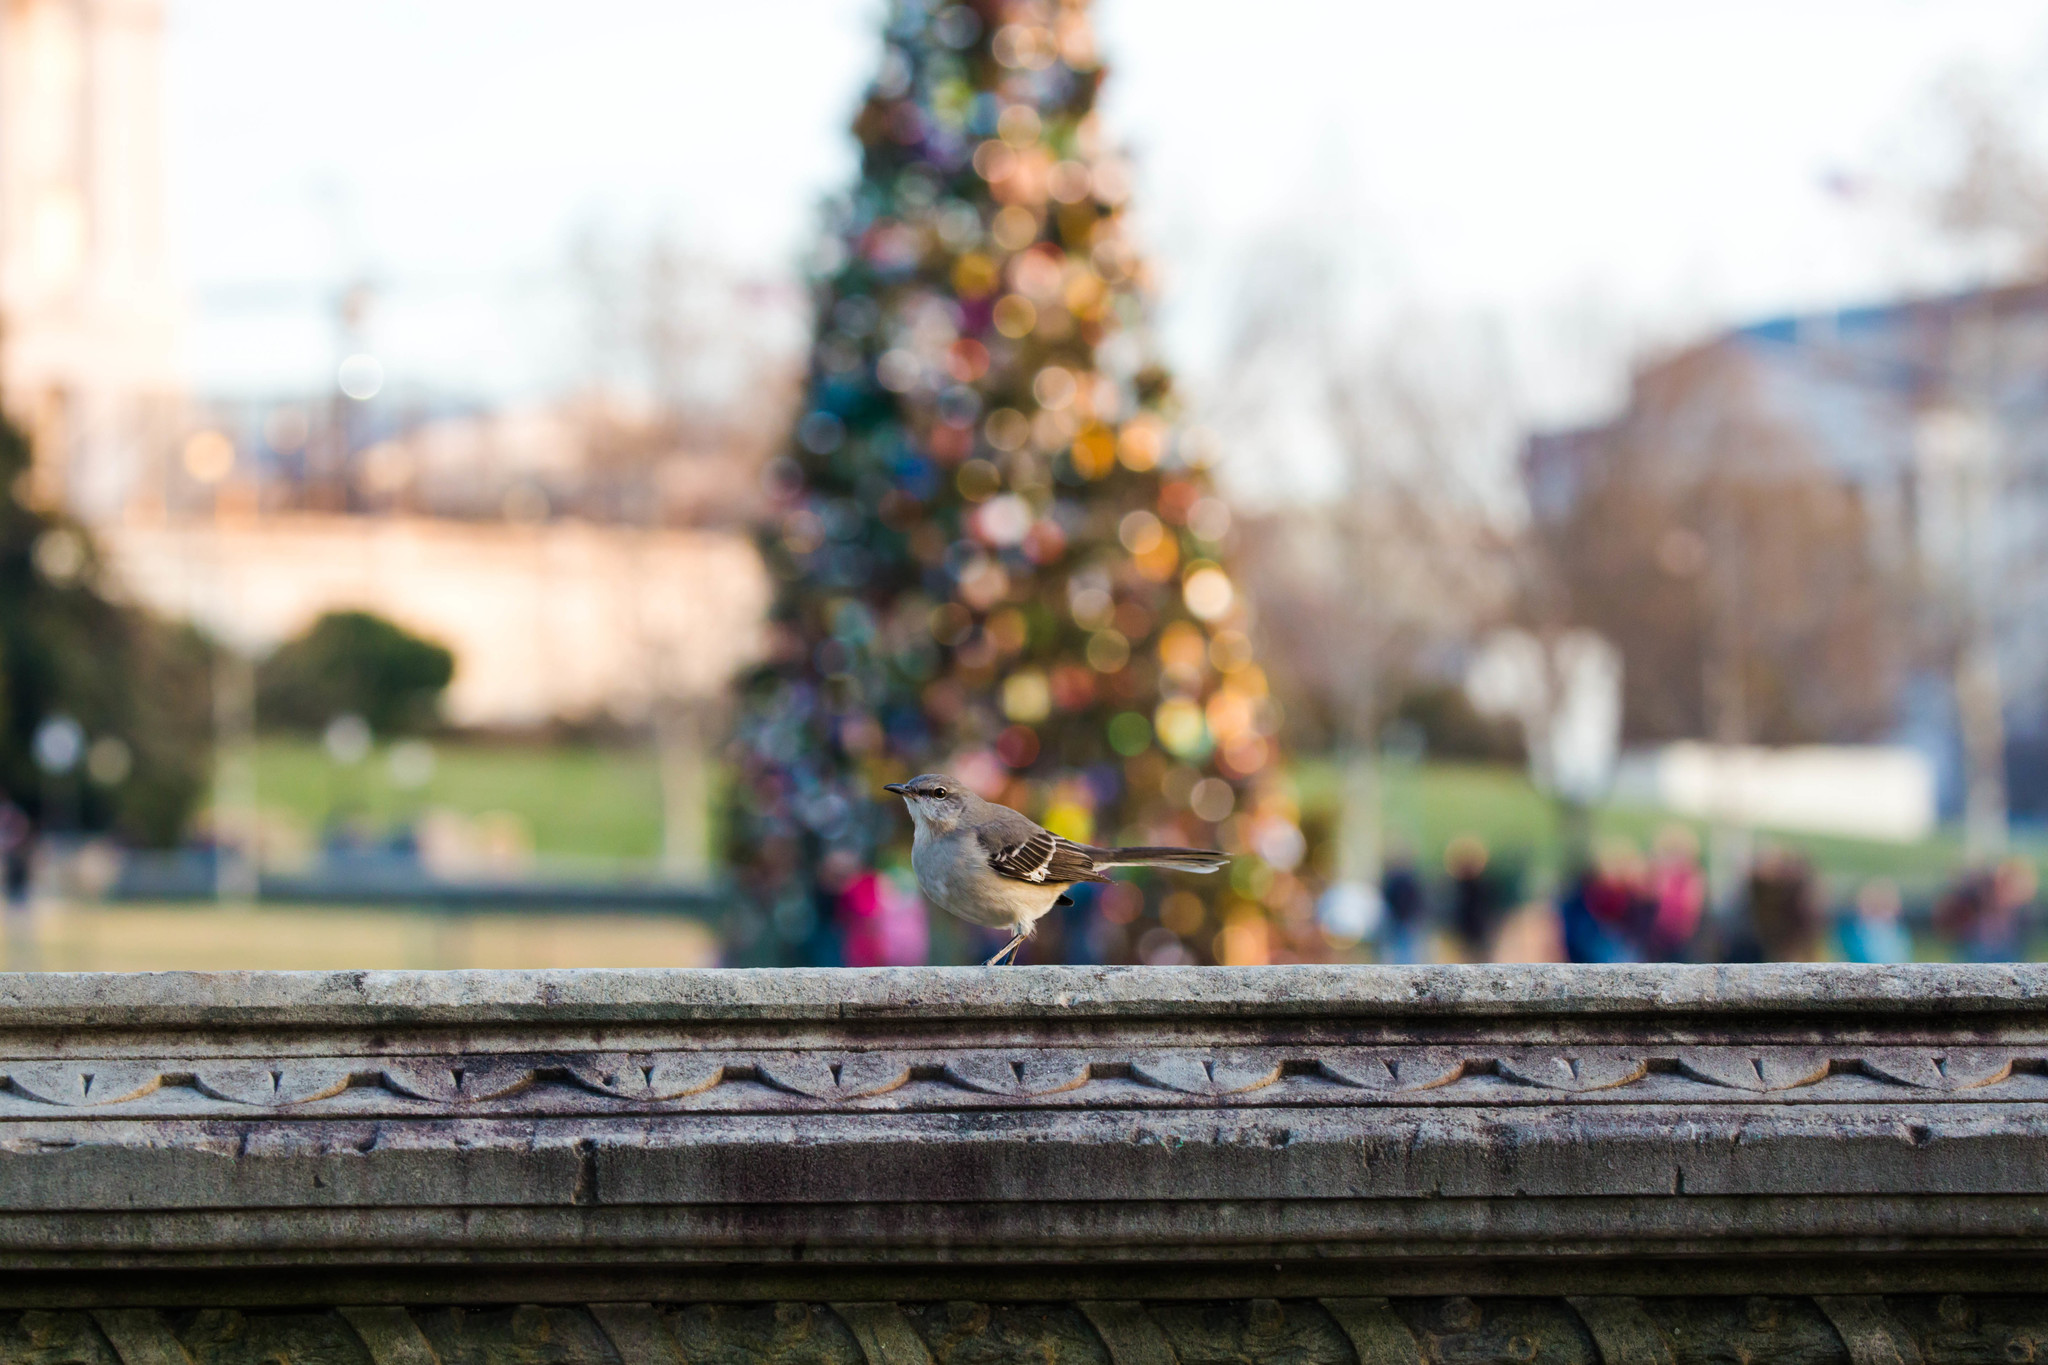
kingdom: Animalia
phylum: Chordata
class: Aves
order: Passeriformes
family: Mimidae
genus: Mimus
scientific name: Mimus polyglottos
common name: Northern mockingbird
